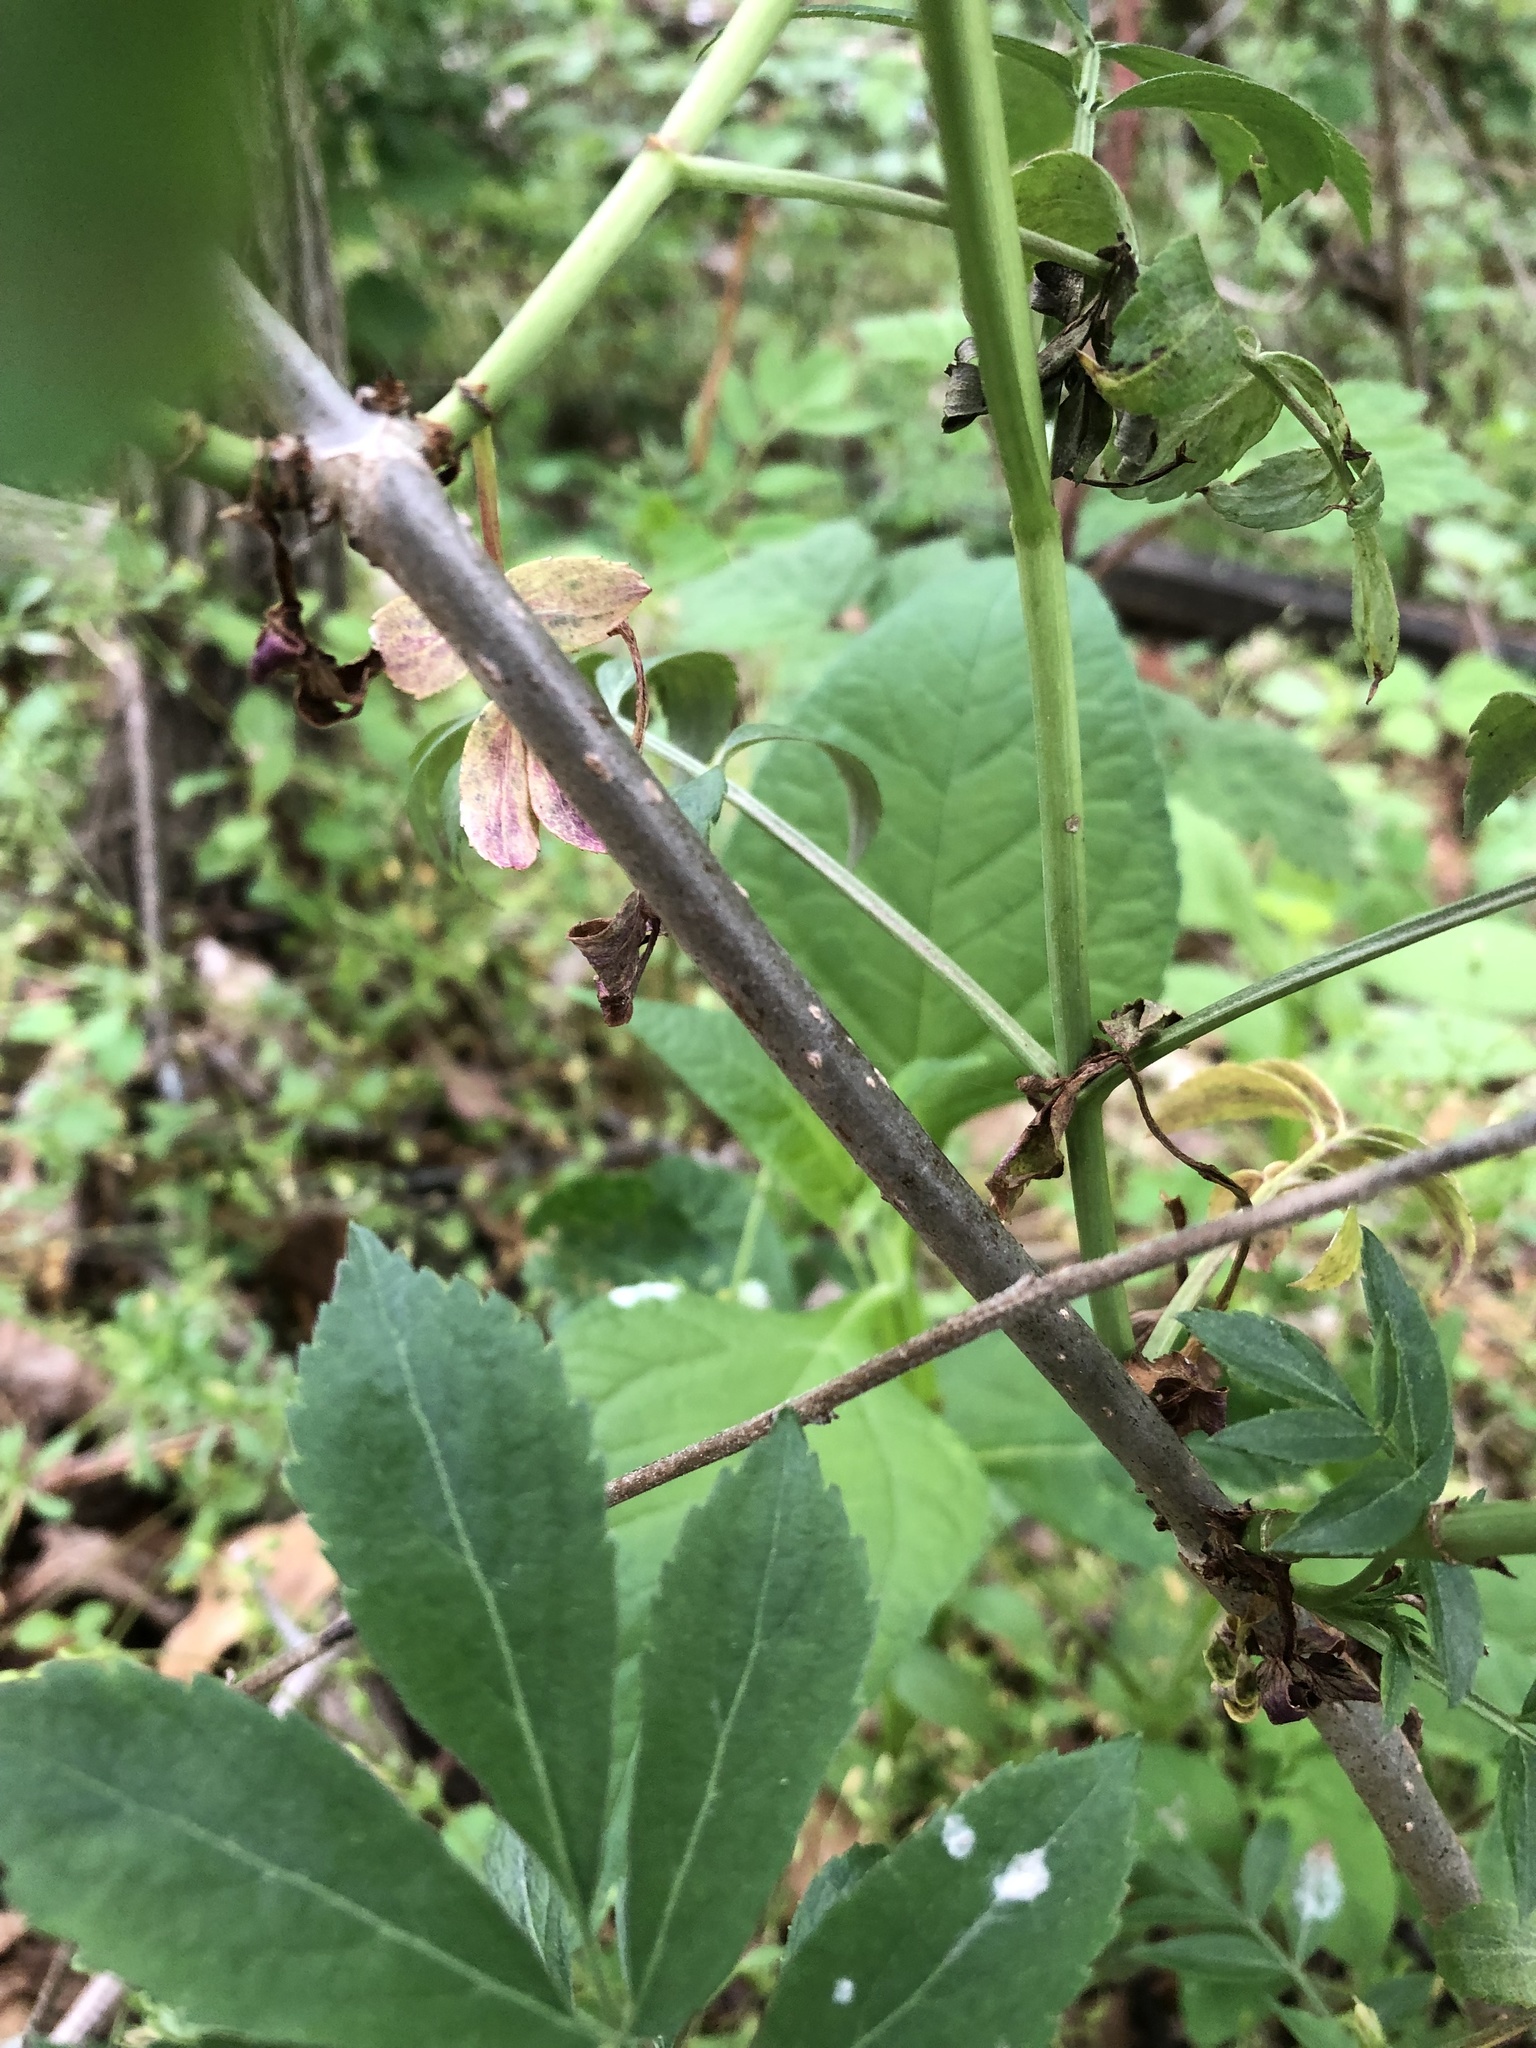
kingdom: Plantae
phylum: Tracheophyta
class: Magnoliopsida
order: Dipsacales
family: Viburnaceae
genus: Sambucus
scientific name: Sambucus canadensis
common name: American elder
